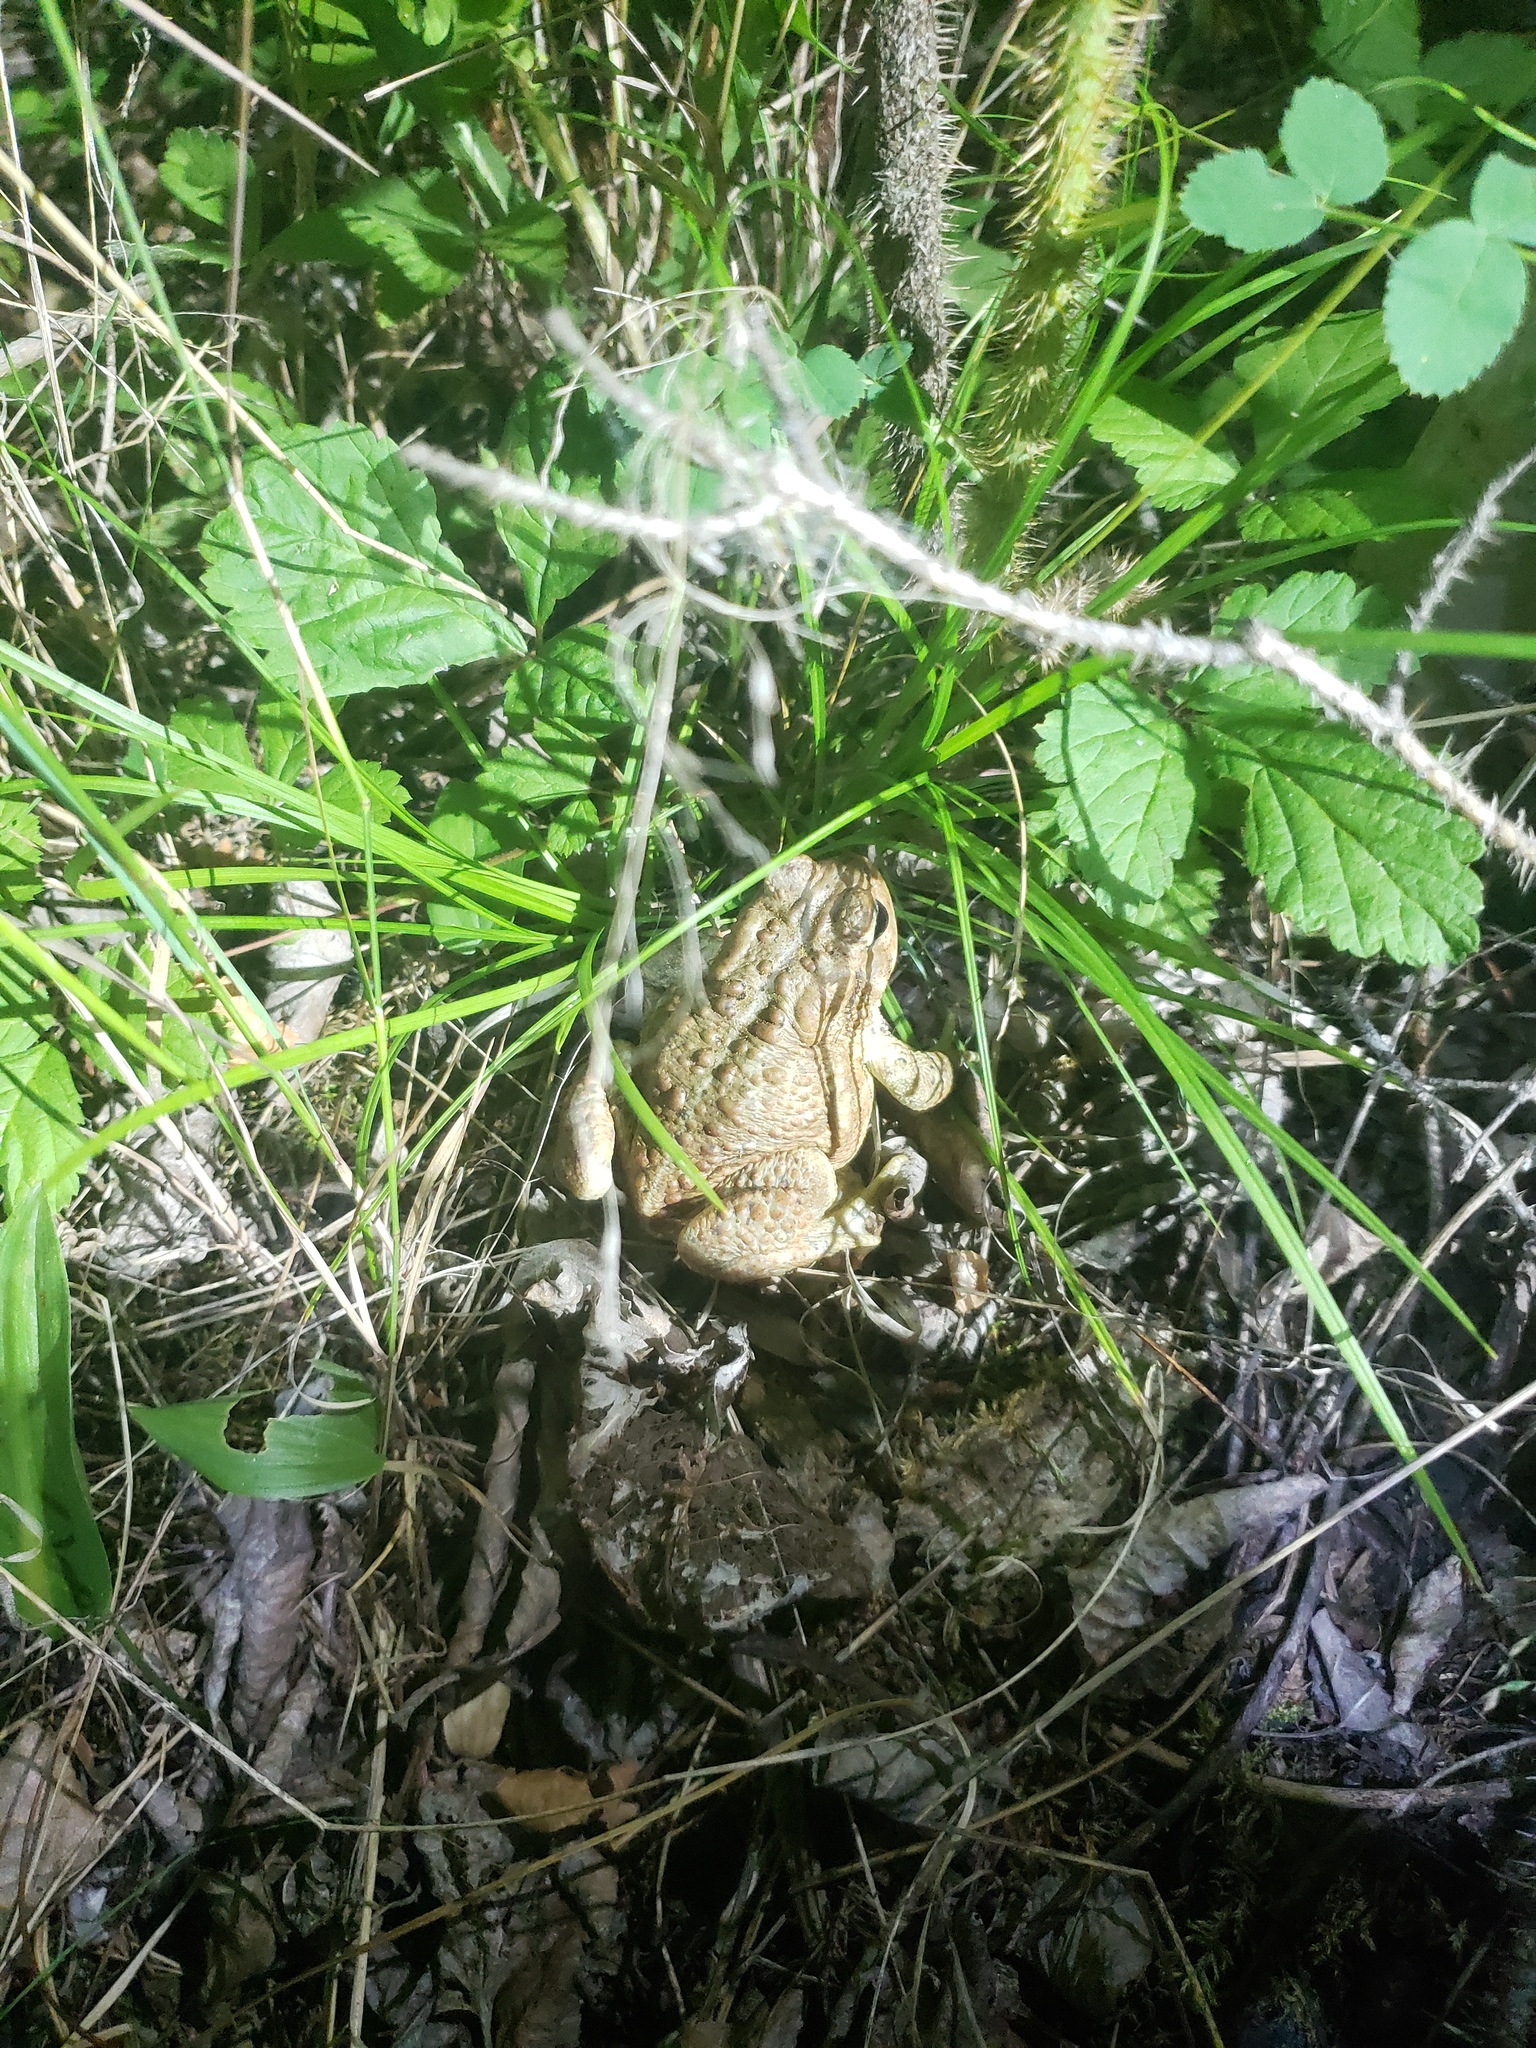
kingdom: Animalia
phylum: Chordata
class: Amphibia
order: Anura
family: Bufonidae
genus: Anaxyrus
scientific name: Anaxyrus americanus
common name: American toad
